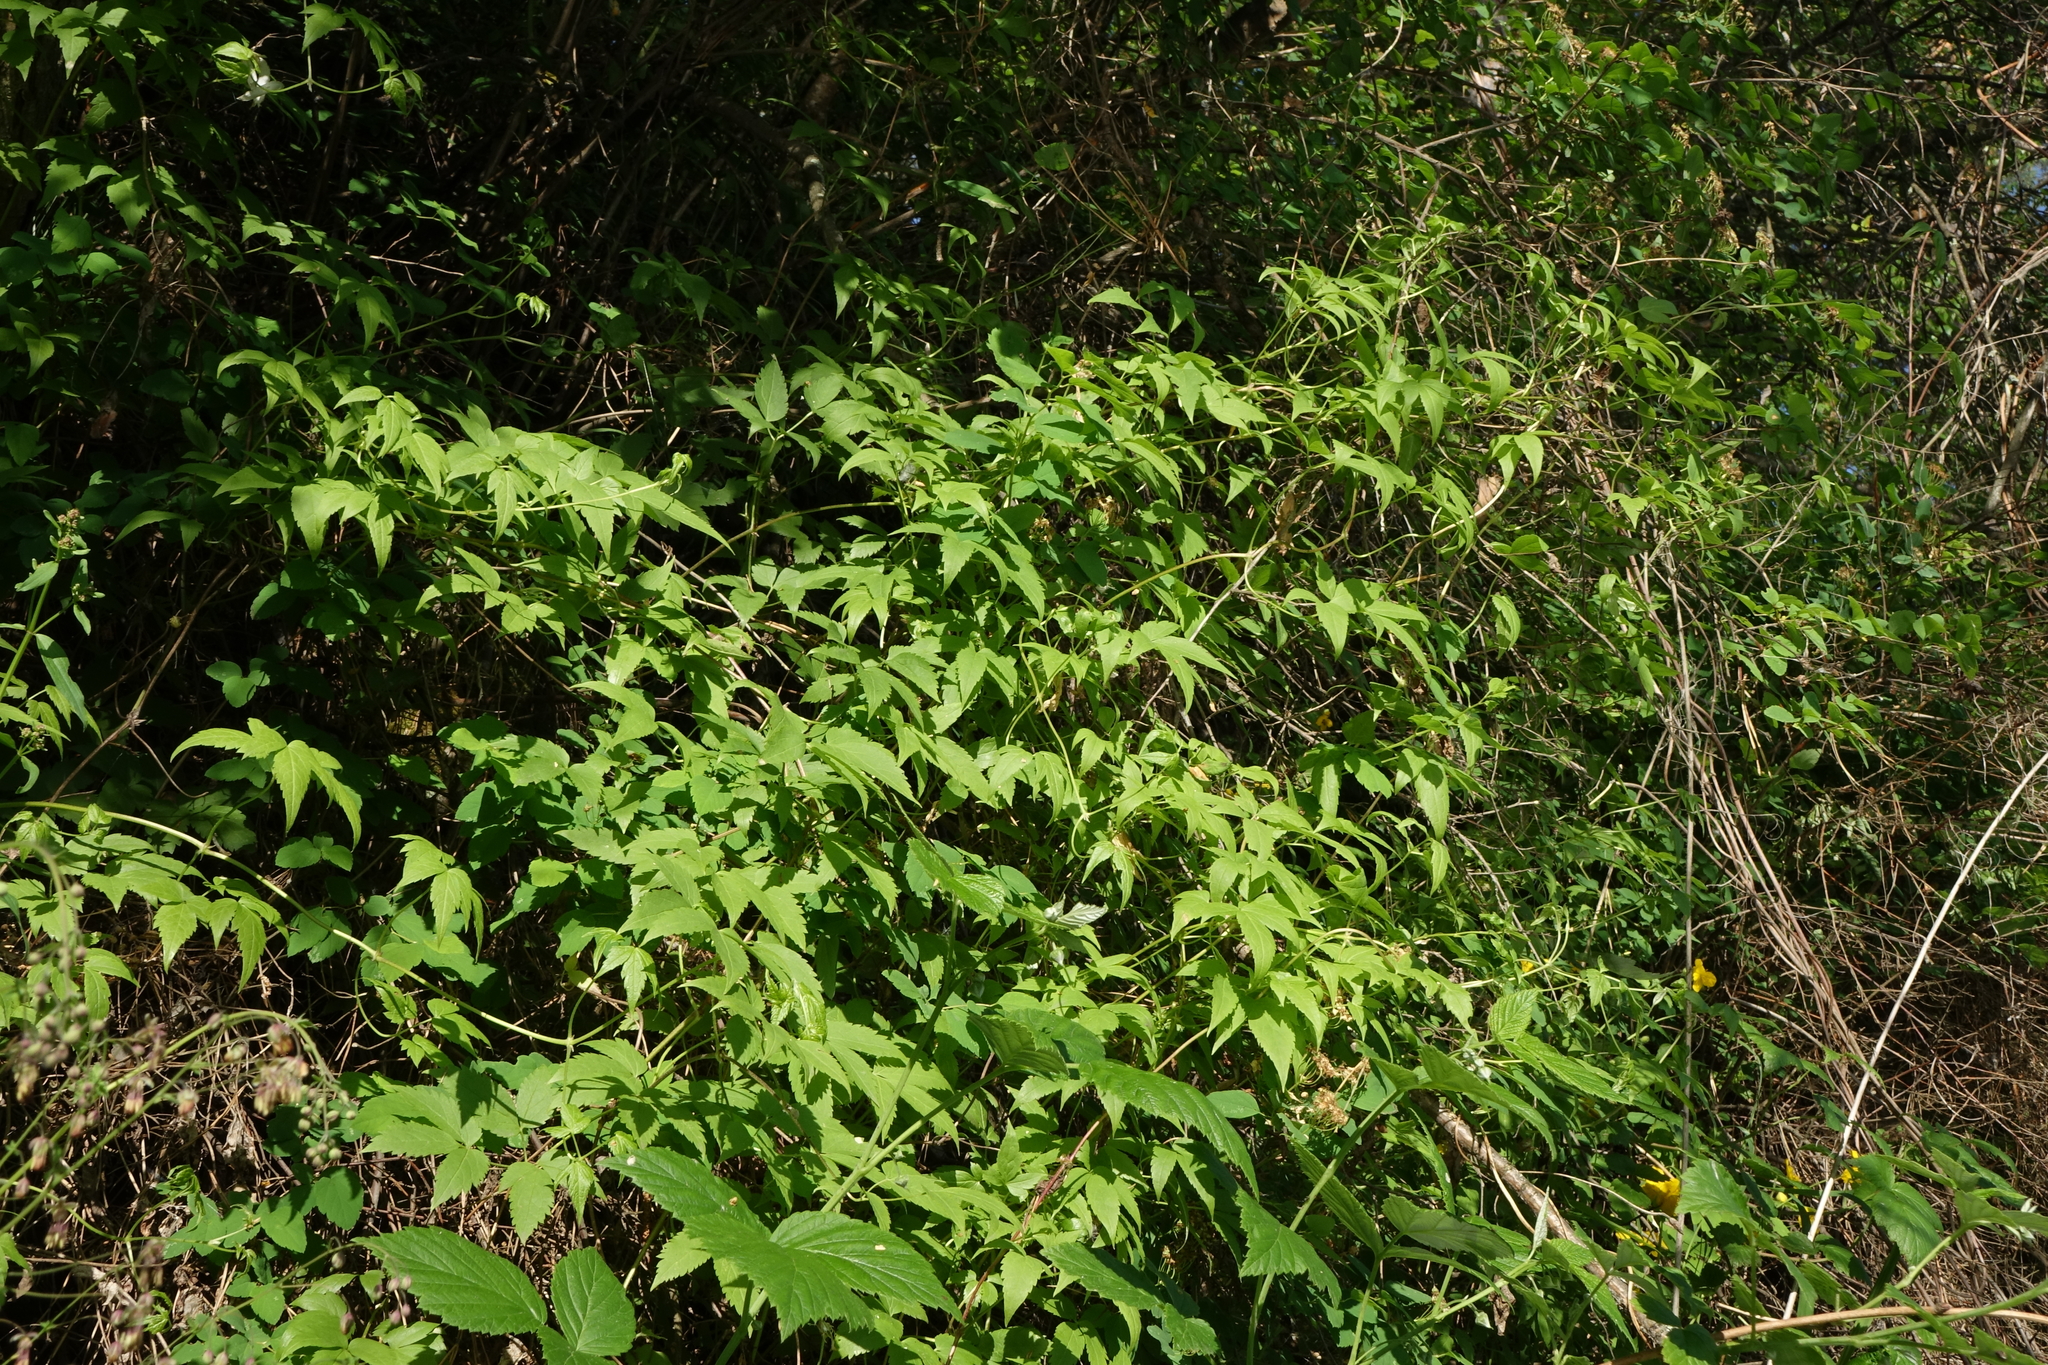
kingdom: Plantae
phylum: Tracheophyta
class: Magnoliopsida
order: Ranunculales
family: Ranunculaceae
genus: Clematis
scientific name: Clematis sibirica
